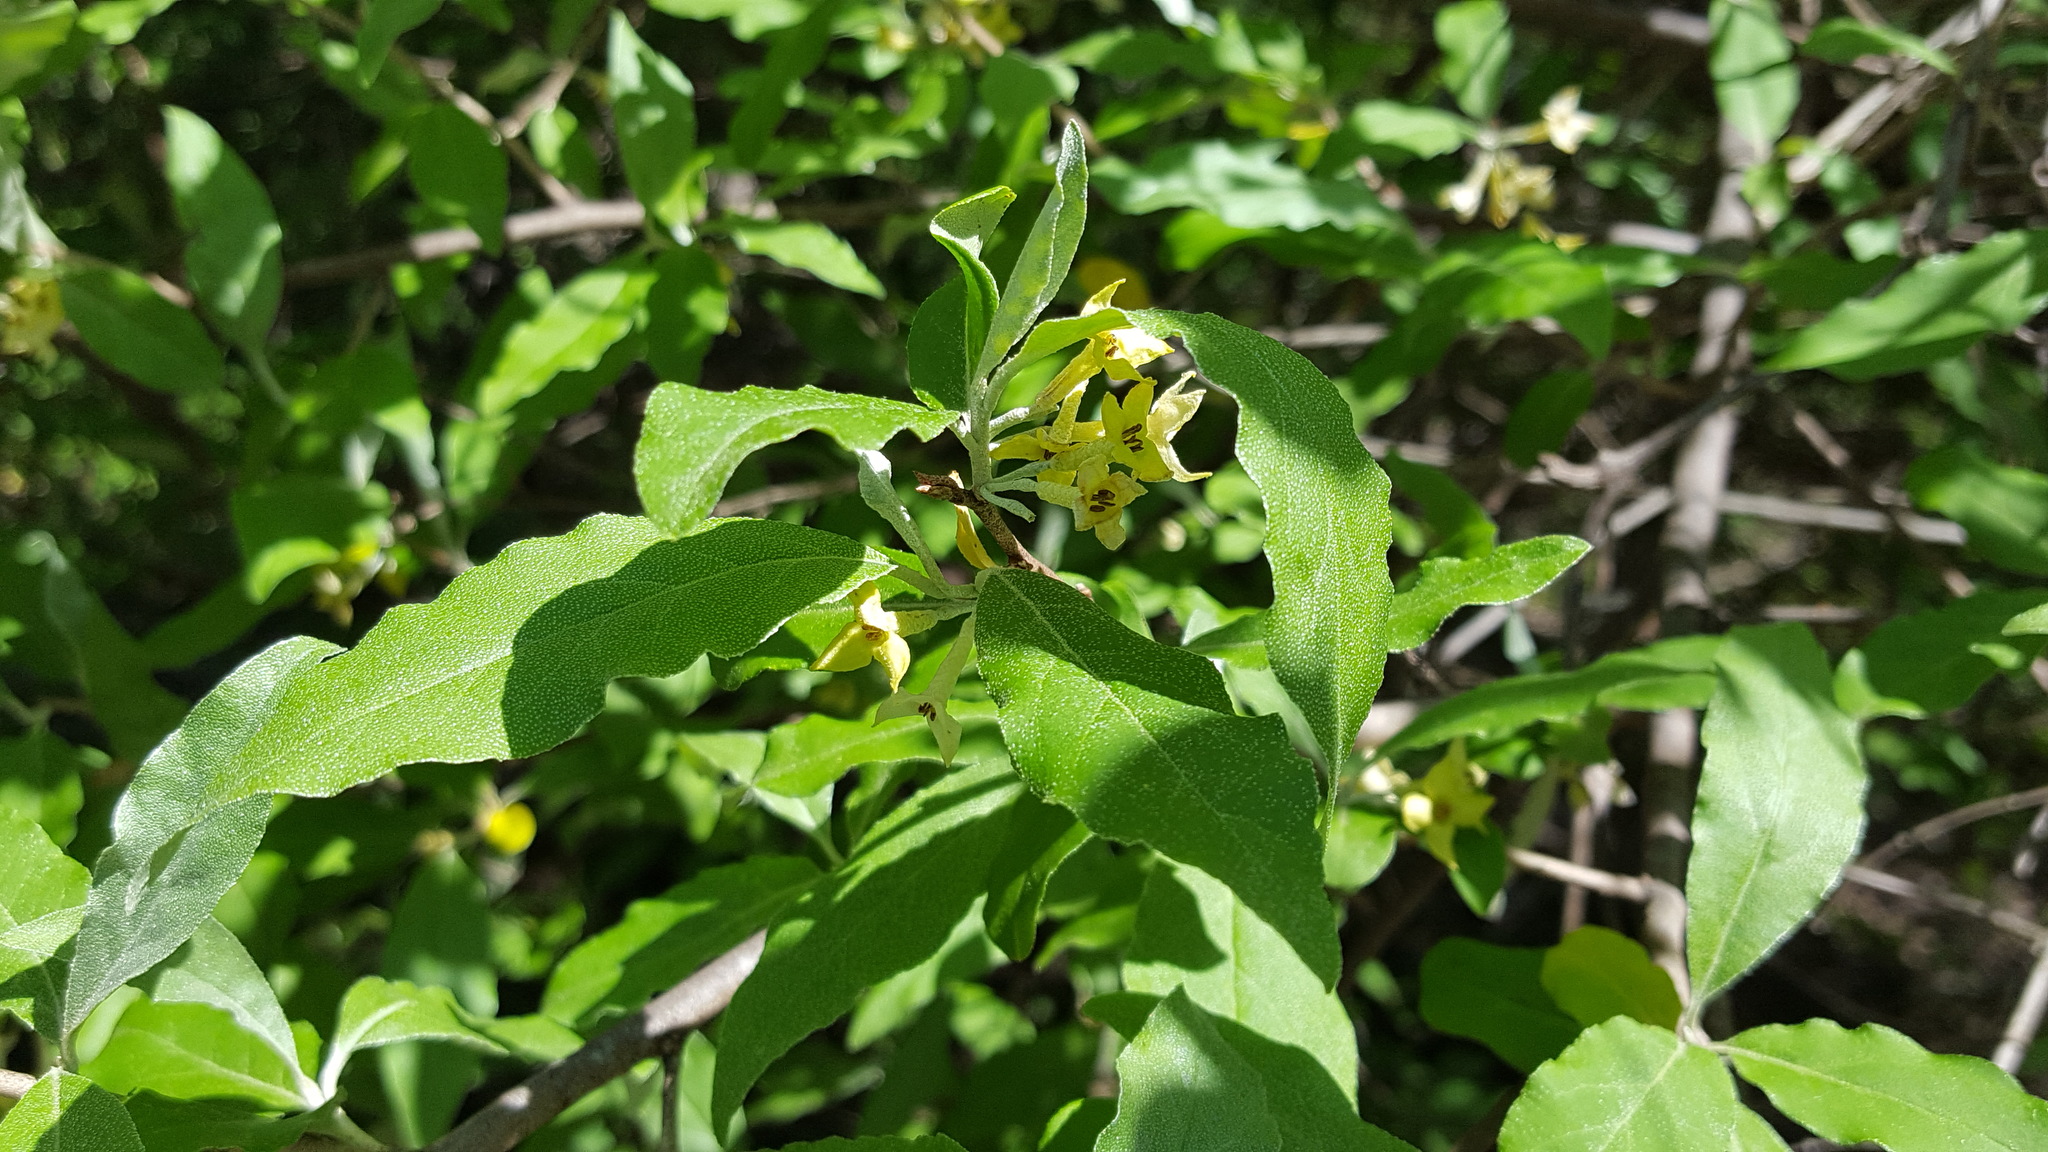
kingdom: Plantae
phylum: Tracheophyta
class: Magnoliopsida
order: Rosales
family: Elaeagnaceae
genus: Elaeagnus
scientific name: Elaeagnus umbellata
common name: Autumn olive
